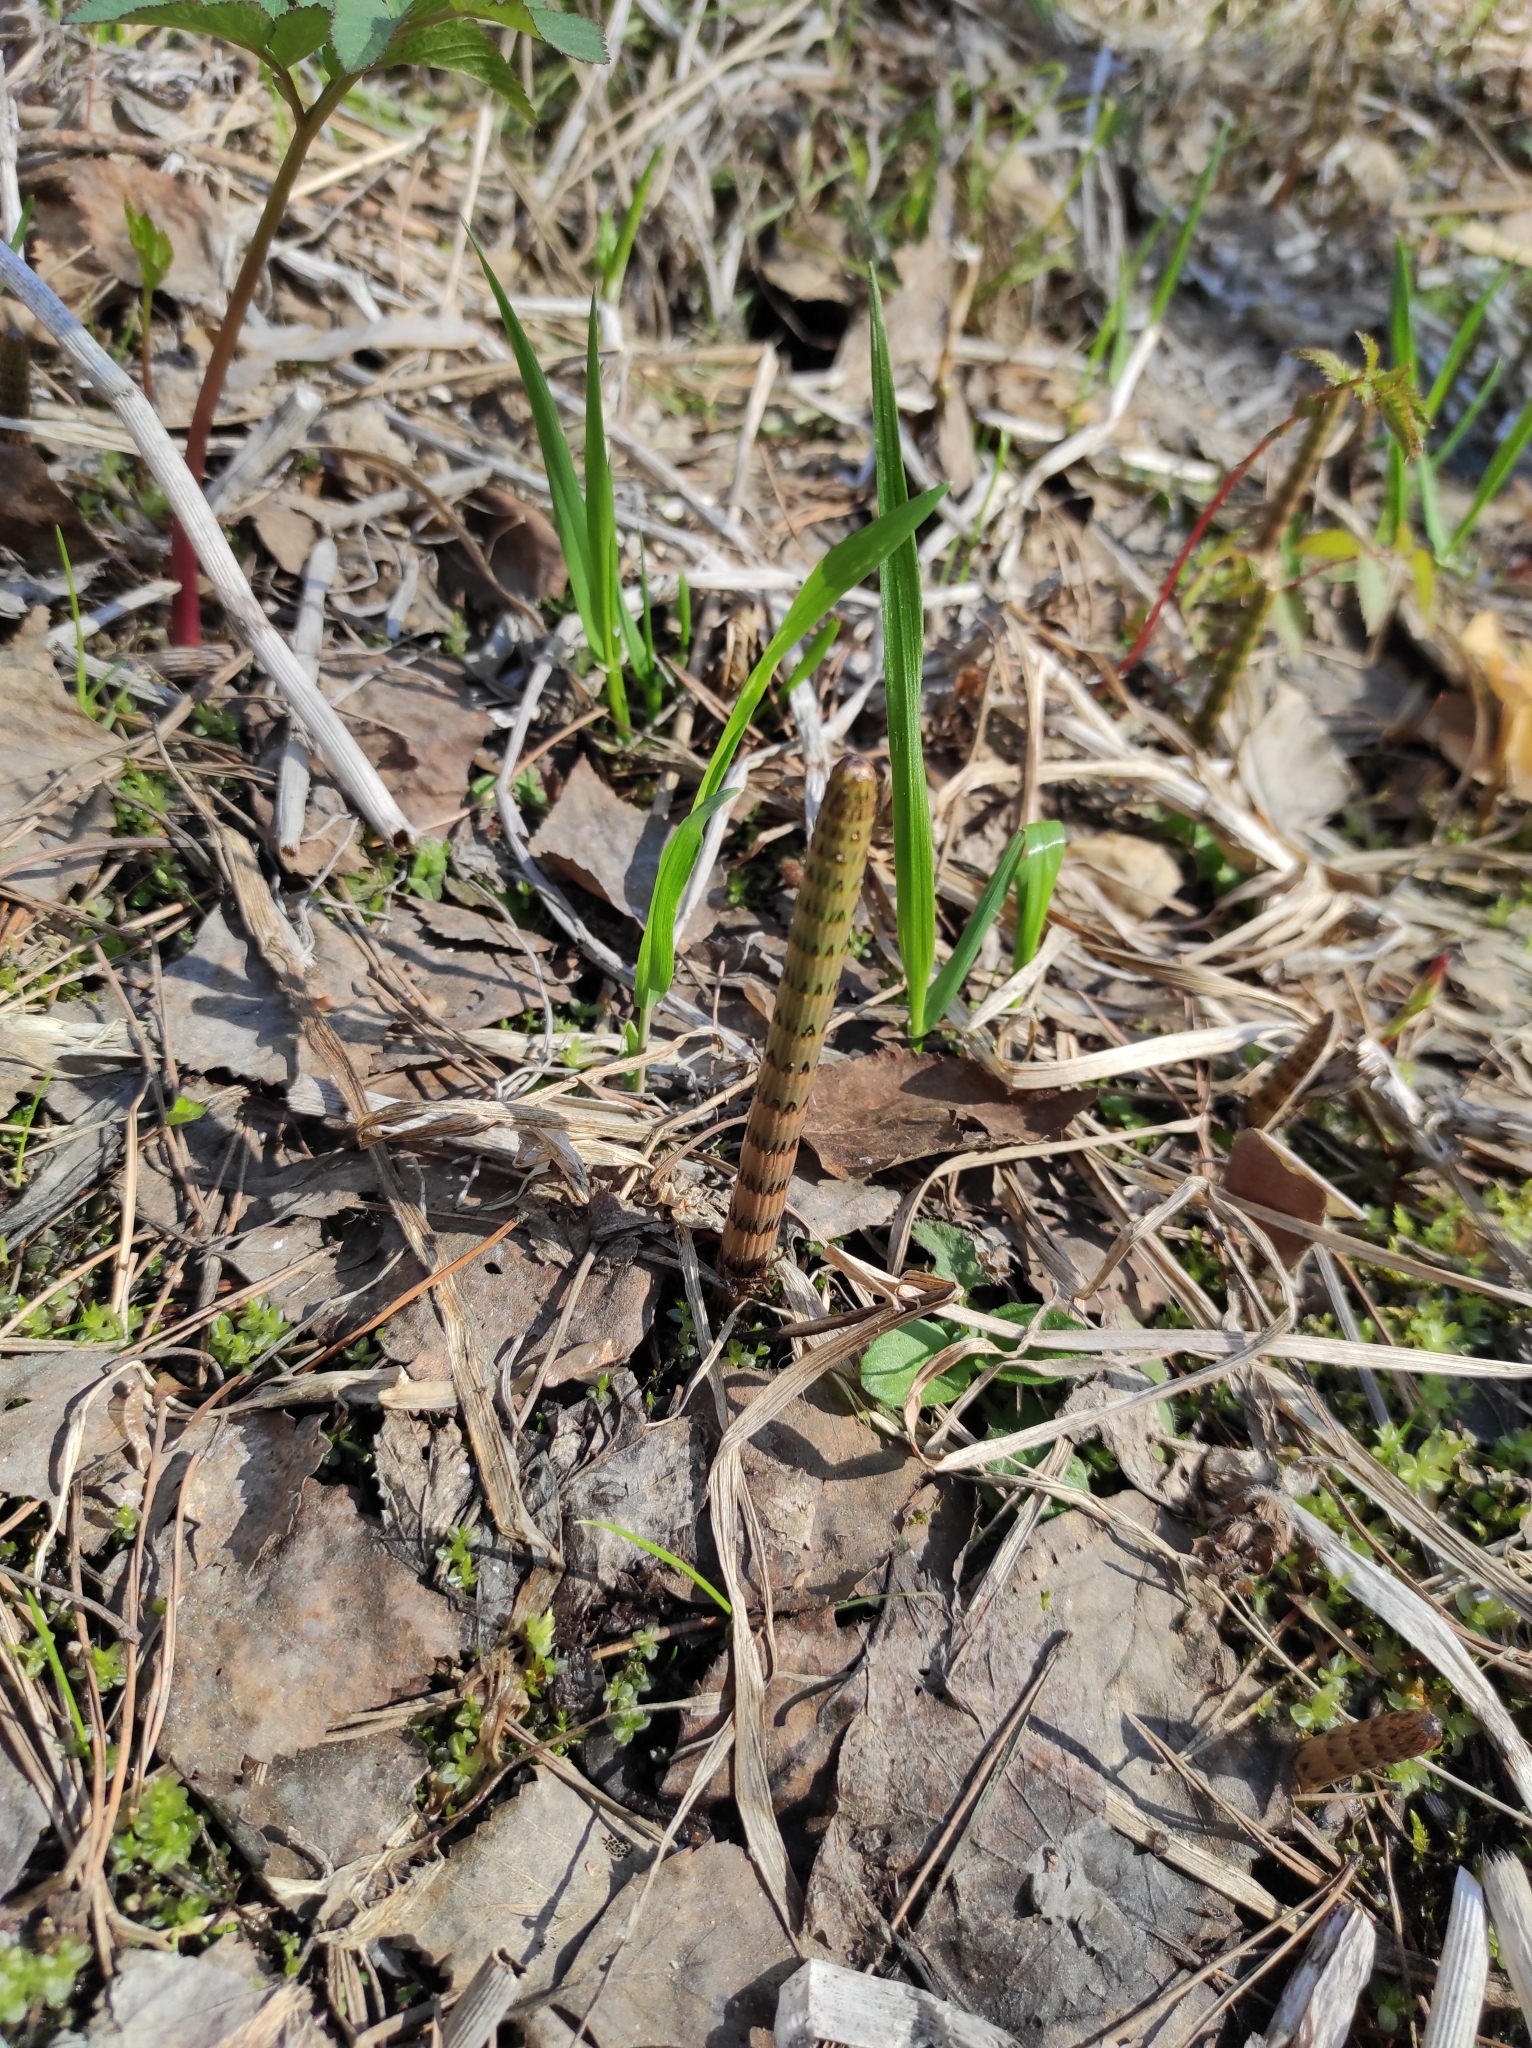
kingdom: Plantae
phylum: Tracheophyta
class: Polypodiopsida
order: Equisetales
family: Equisetaceae
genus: Equisetum
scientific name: Equisetum fluviatile
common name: Water horsetail
